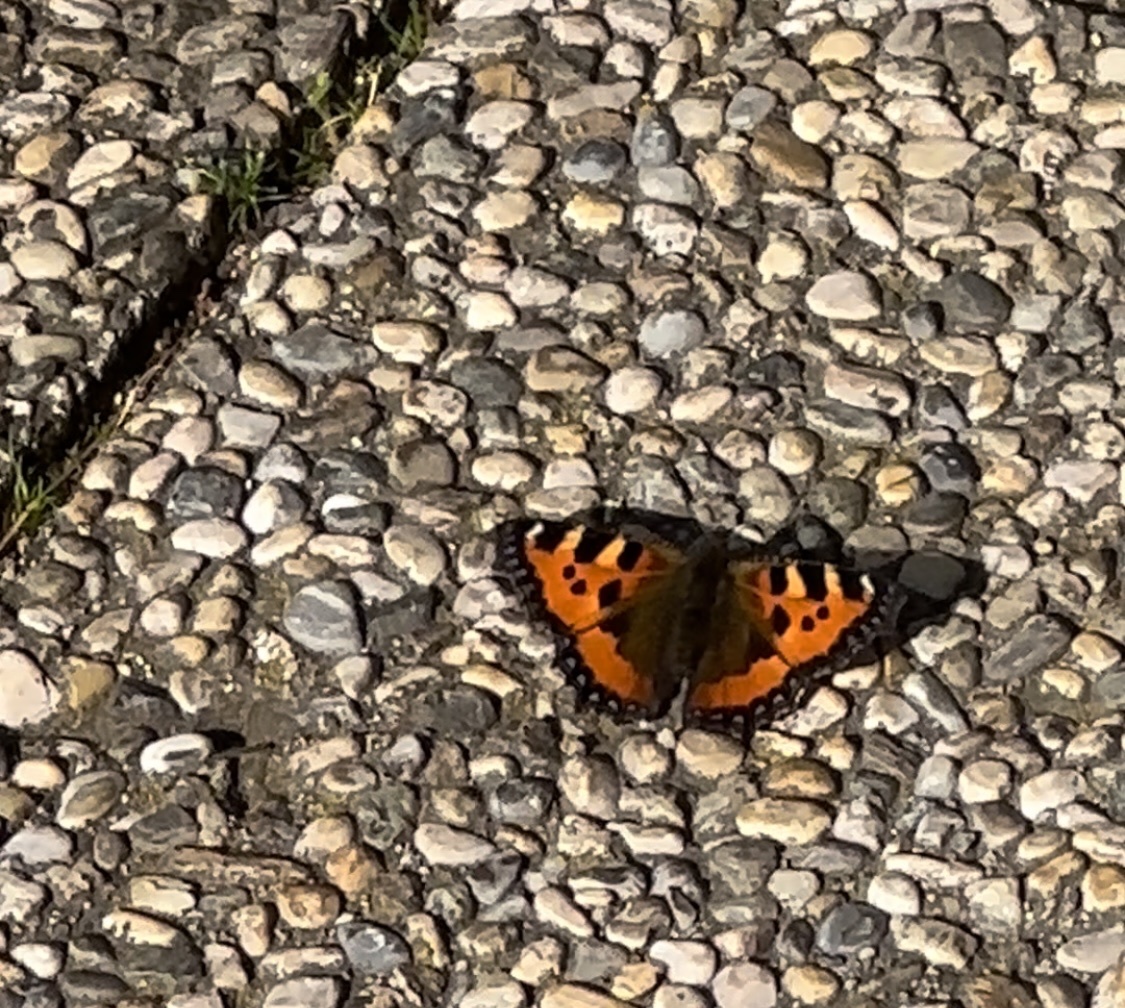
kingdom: Animalia
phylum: Arthropoda
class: Insecta
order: Lepidoptera
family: Nymphalidae
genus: Aglais
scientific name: Aglais urticae
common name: Small tortoiseshell
